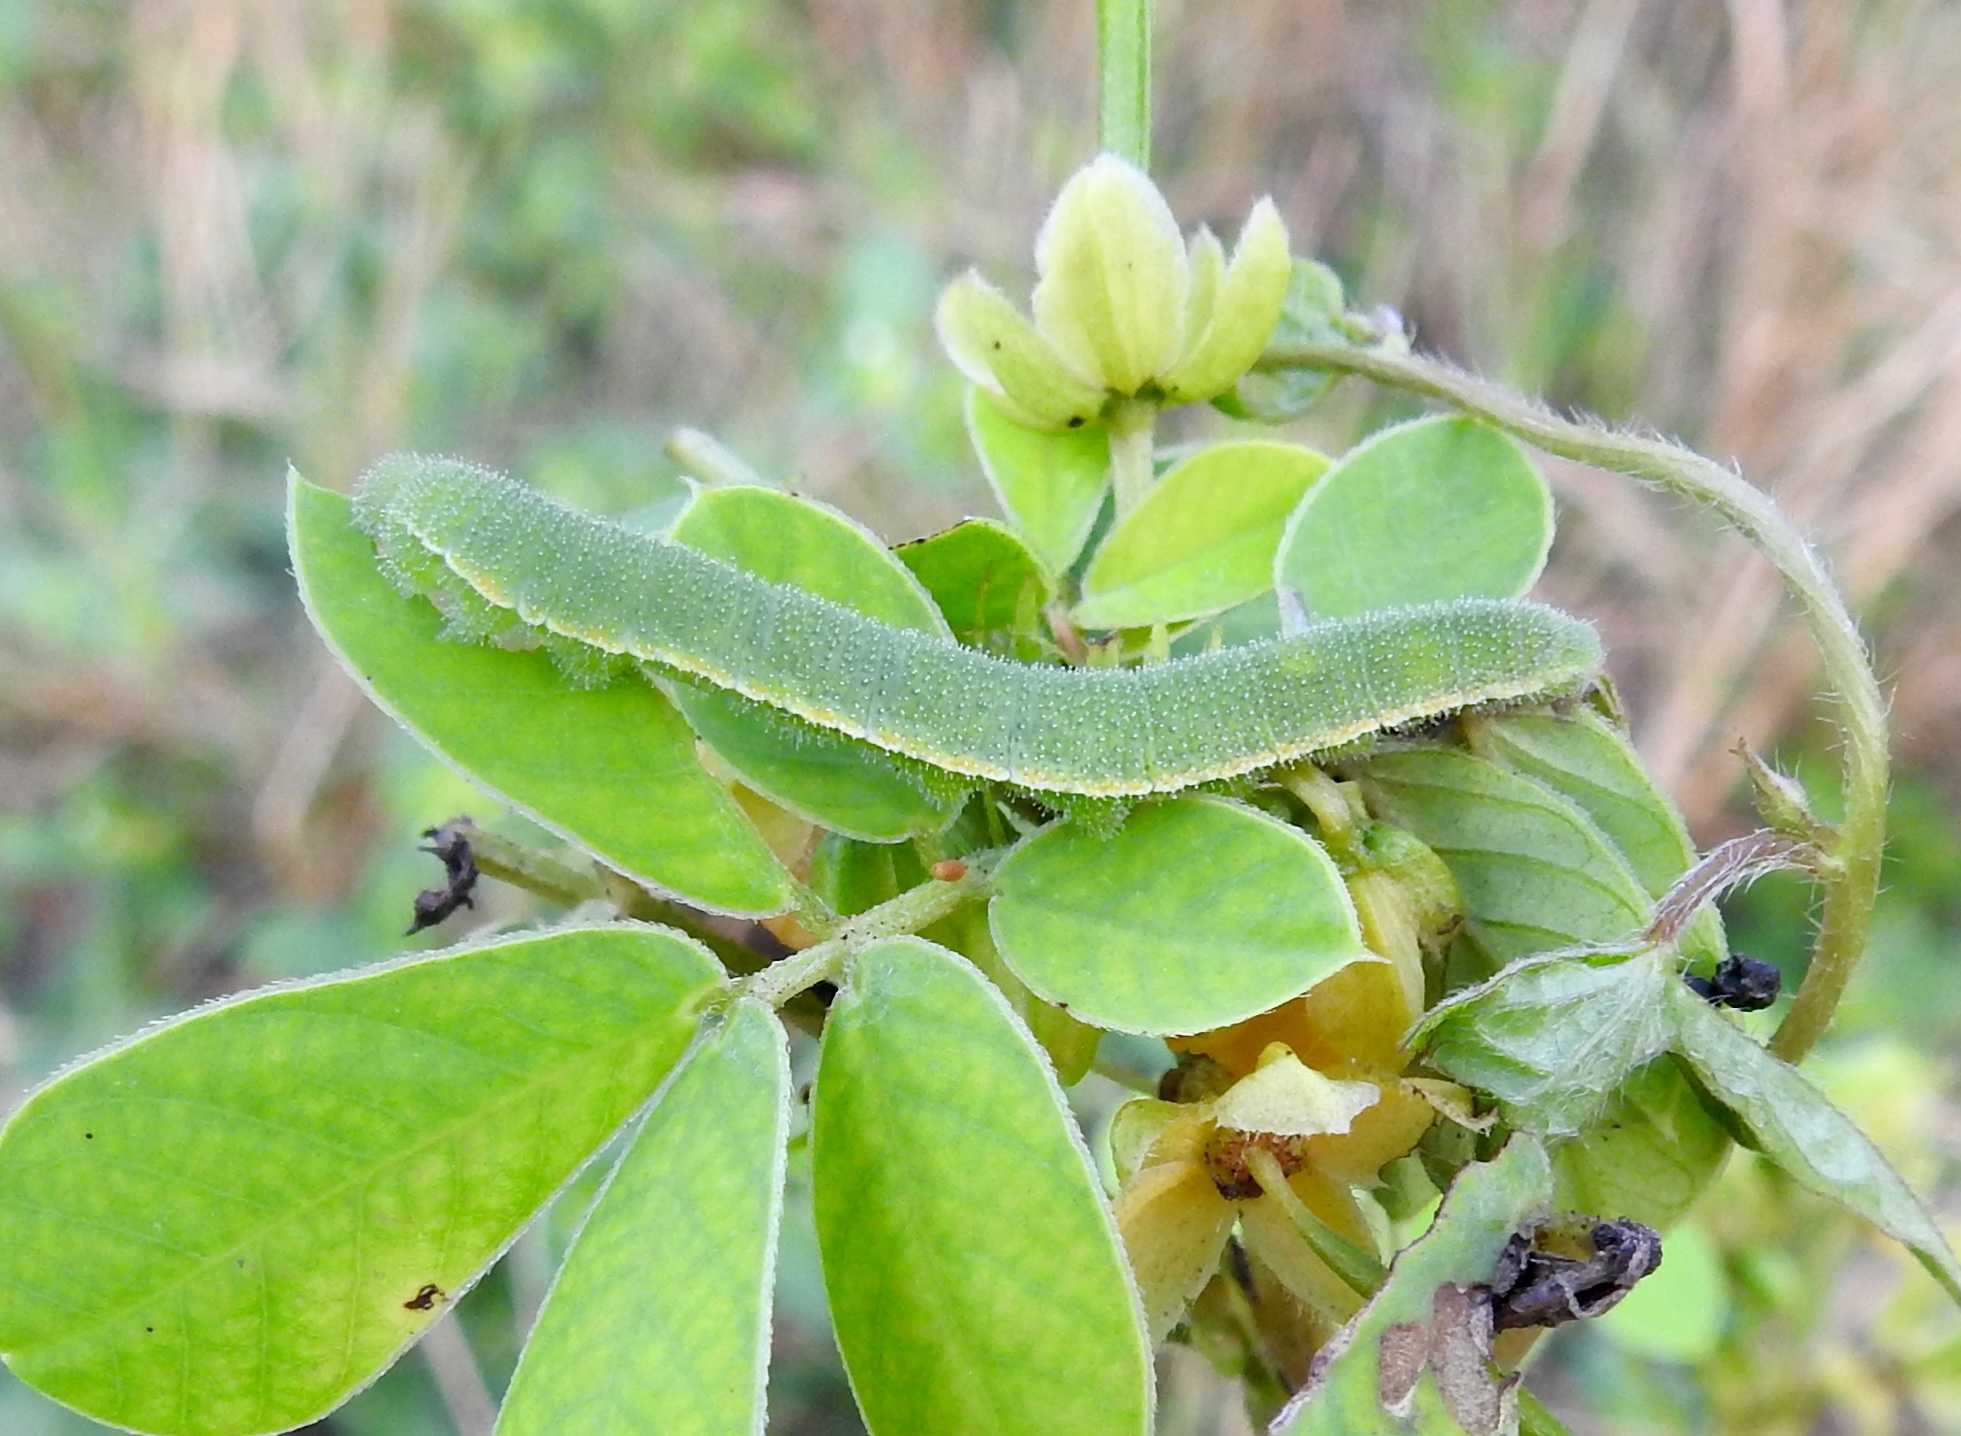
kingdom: Animalia
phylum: Arthropoda
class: Insecta
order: Lepidoptera
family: Pieridae
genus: Abaeis
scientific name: Abaeis nicippe
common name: Sleepy orange
